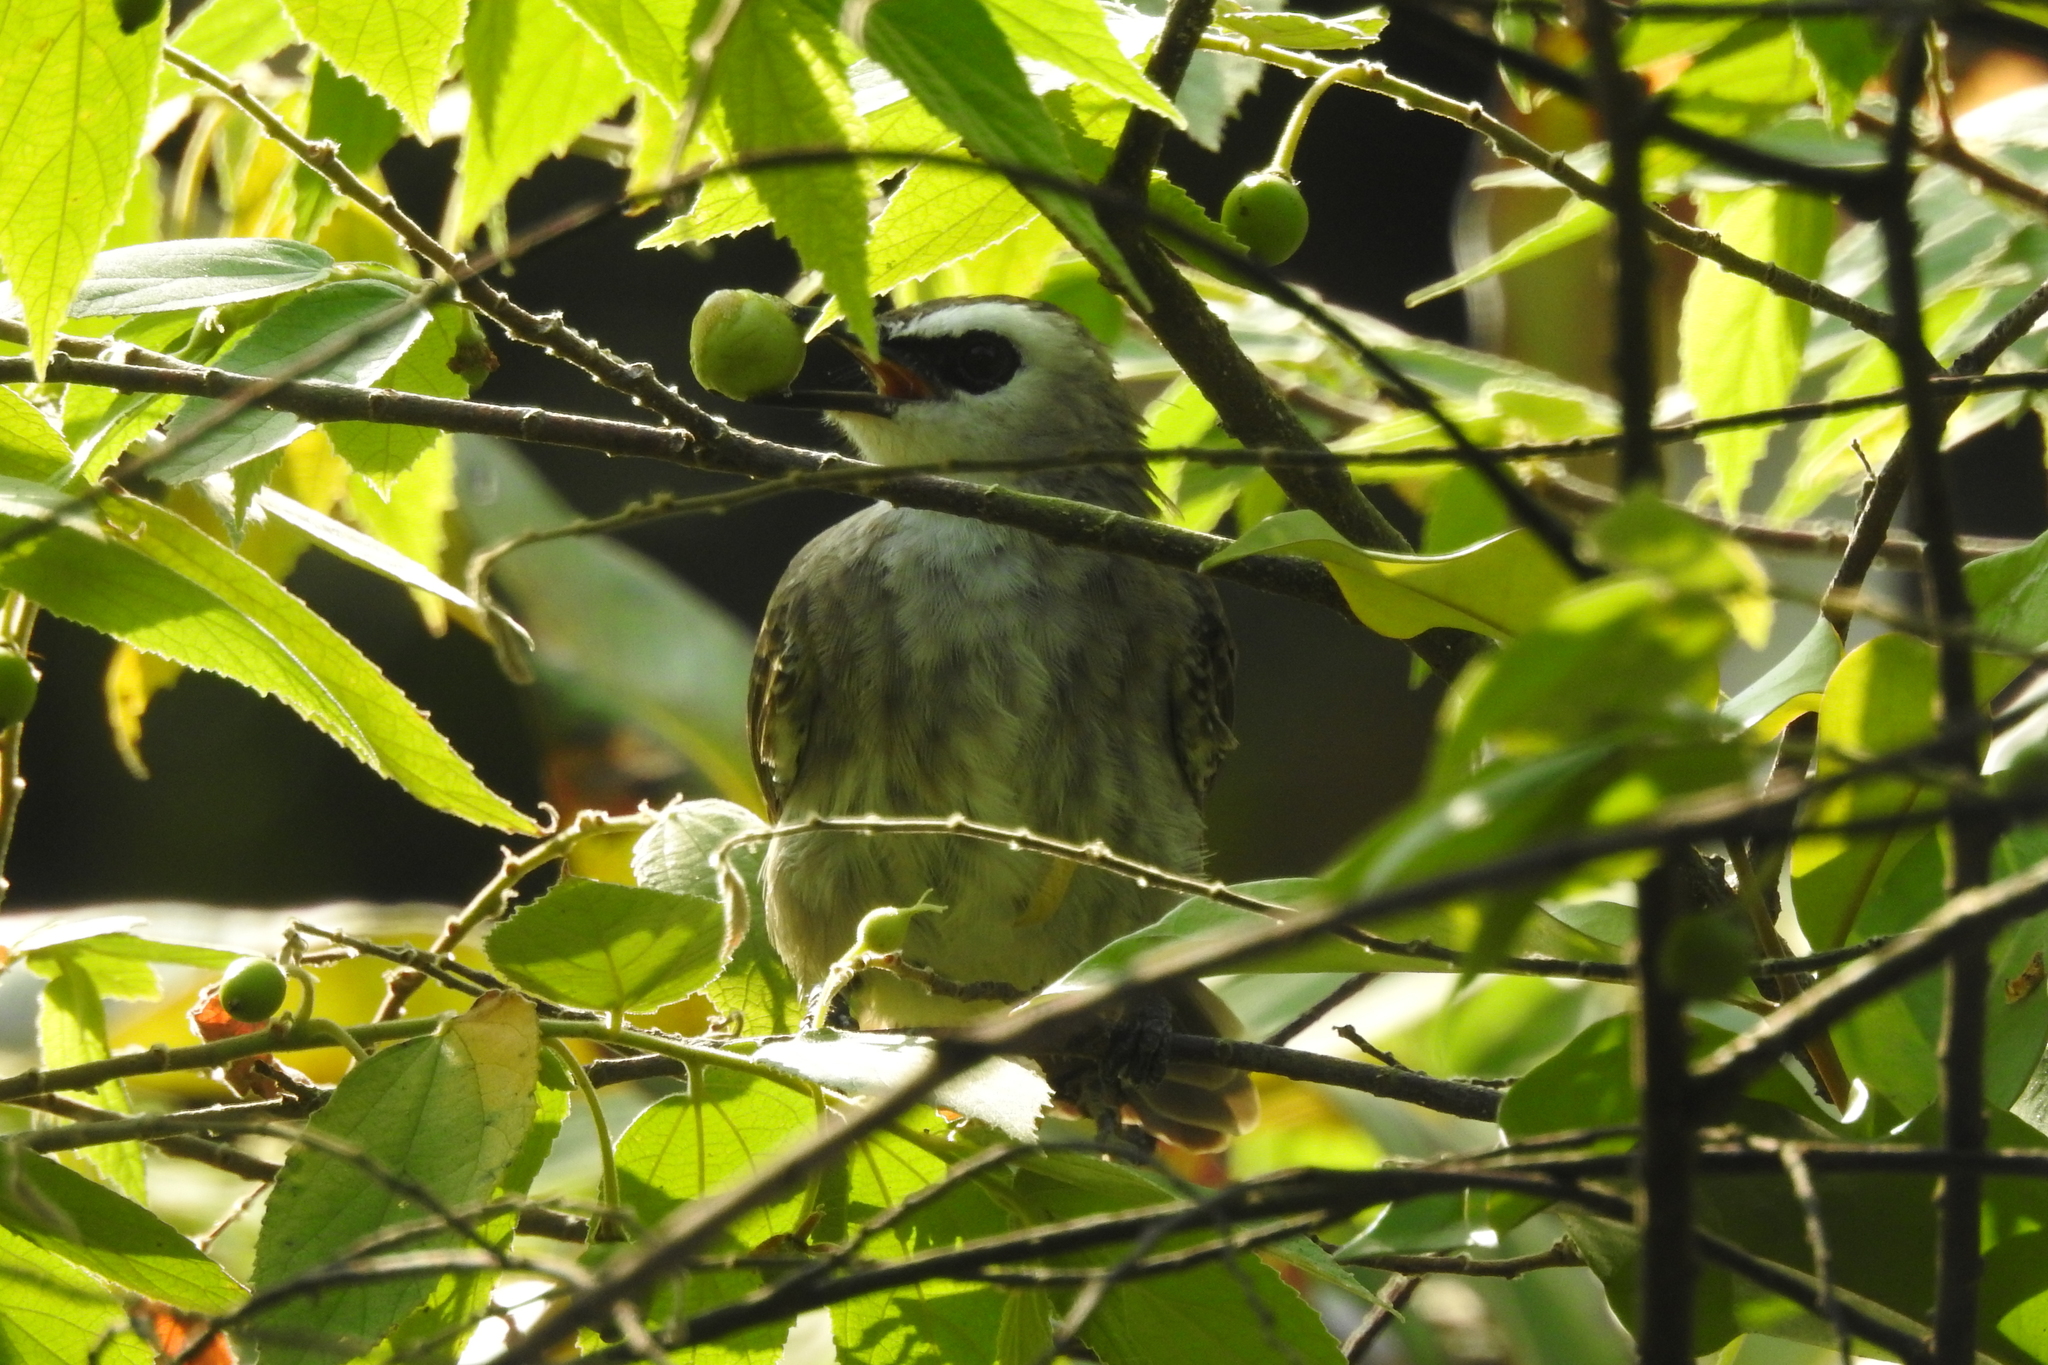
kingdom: Animalia
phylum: Chordata
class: Aves
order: Passeriformes
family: Pycnonotidae
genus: Pycnonotus
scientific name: Pycnonotus goiavier
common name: Yellow-vented bulbul
